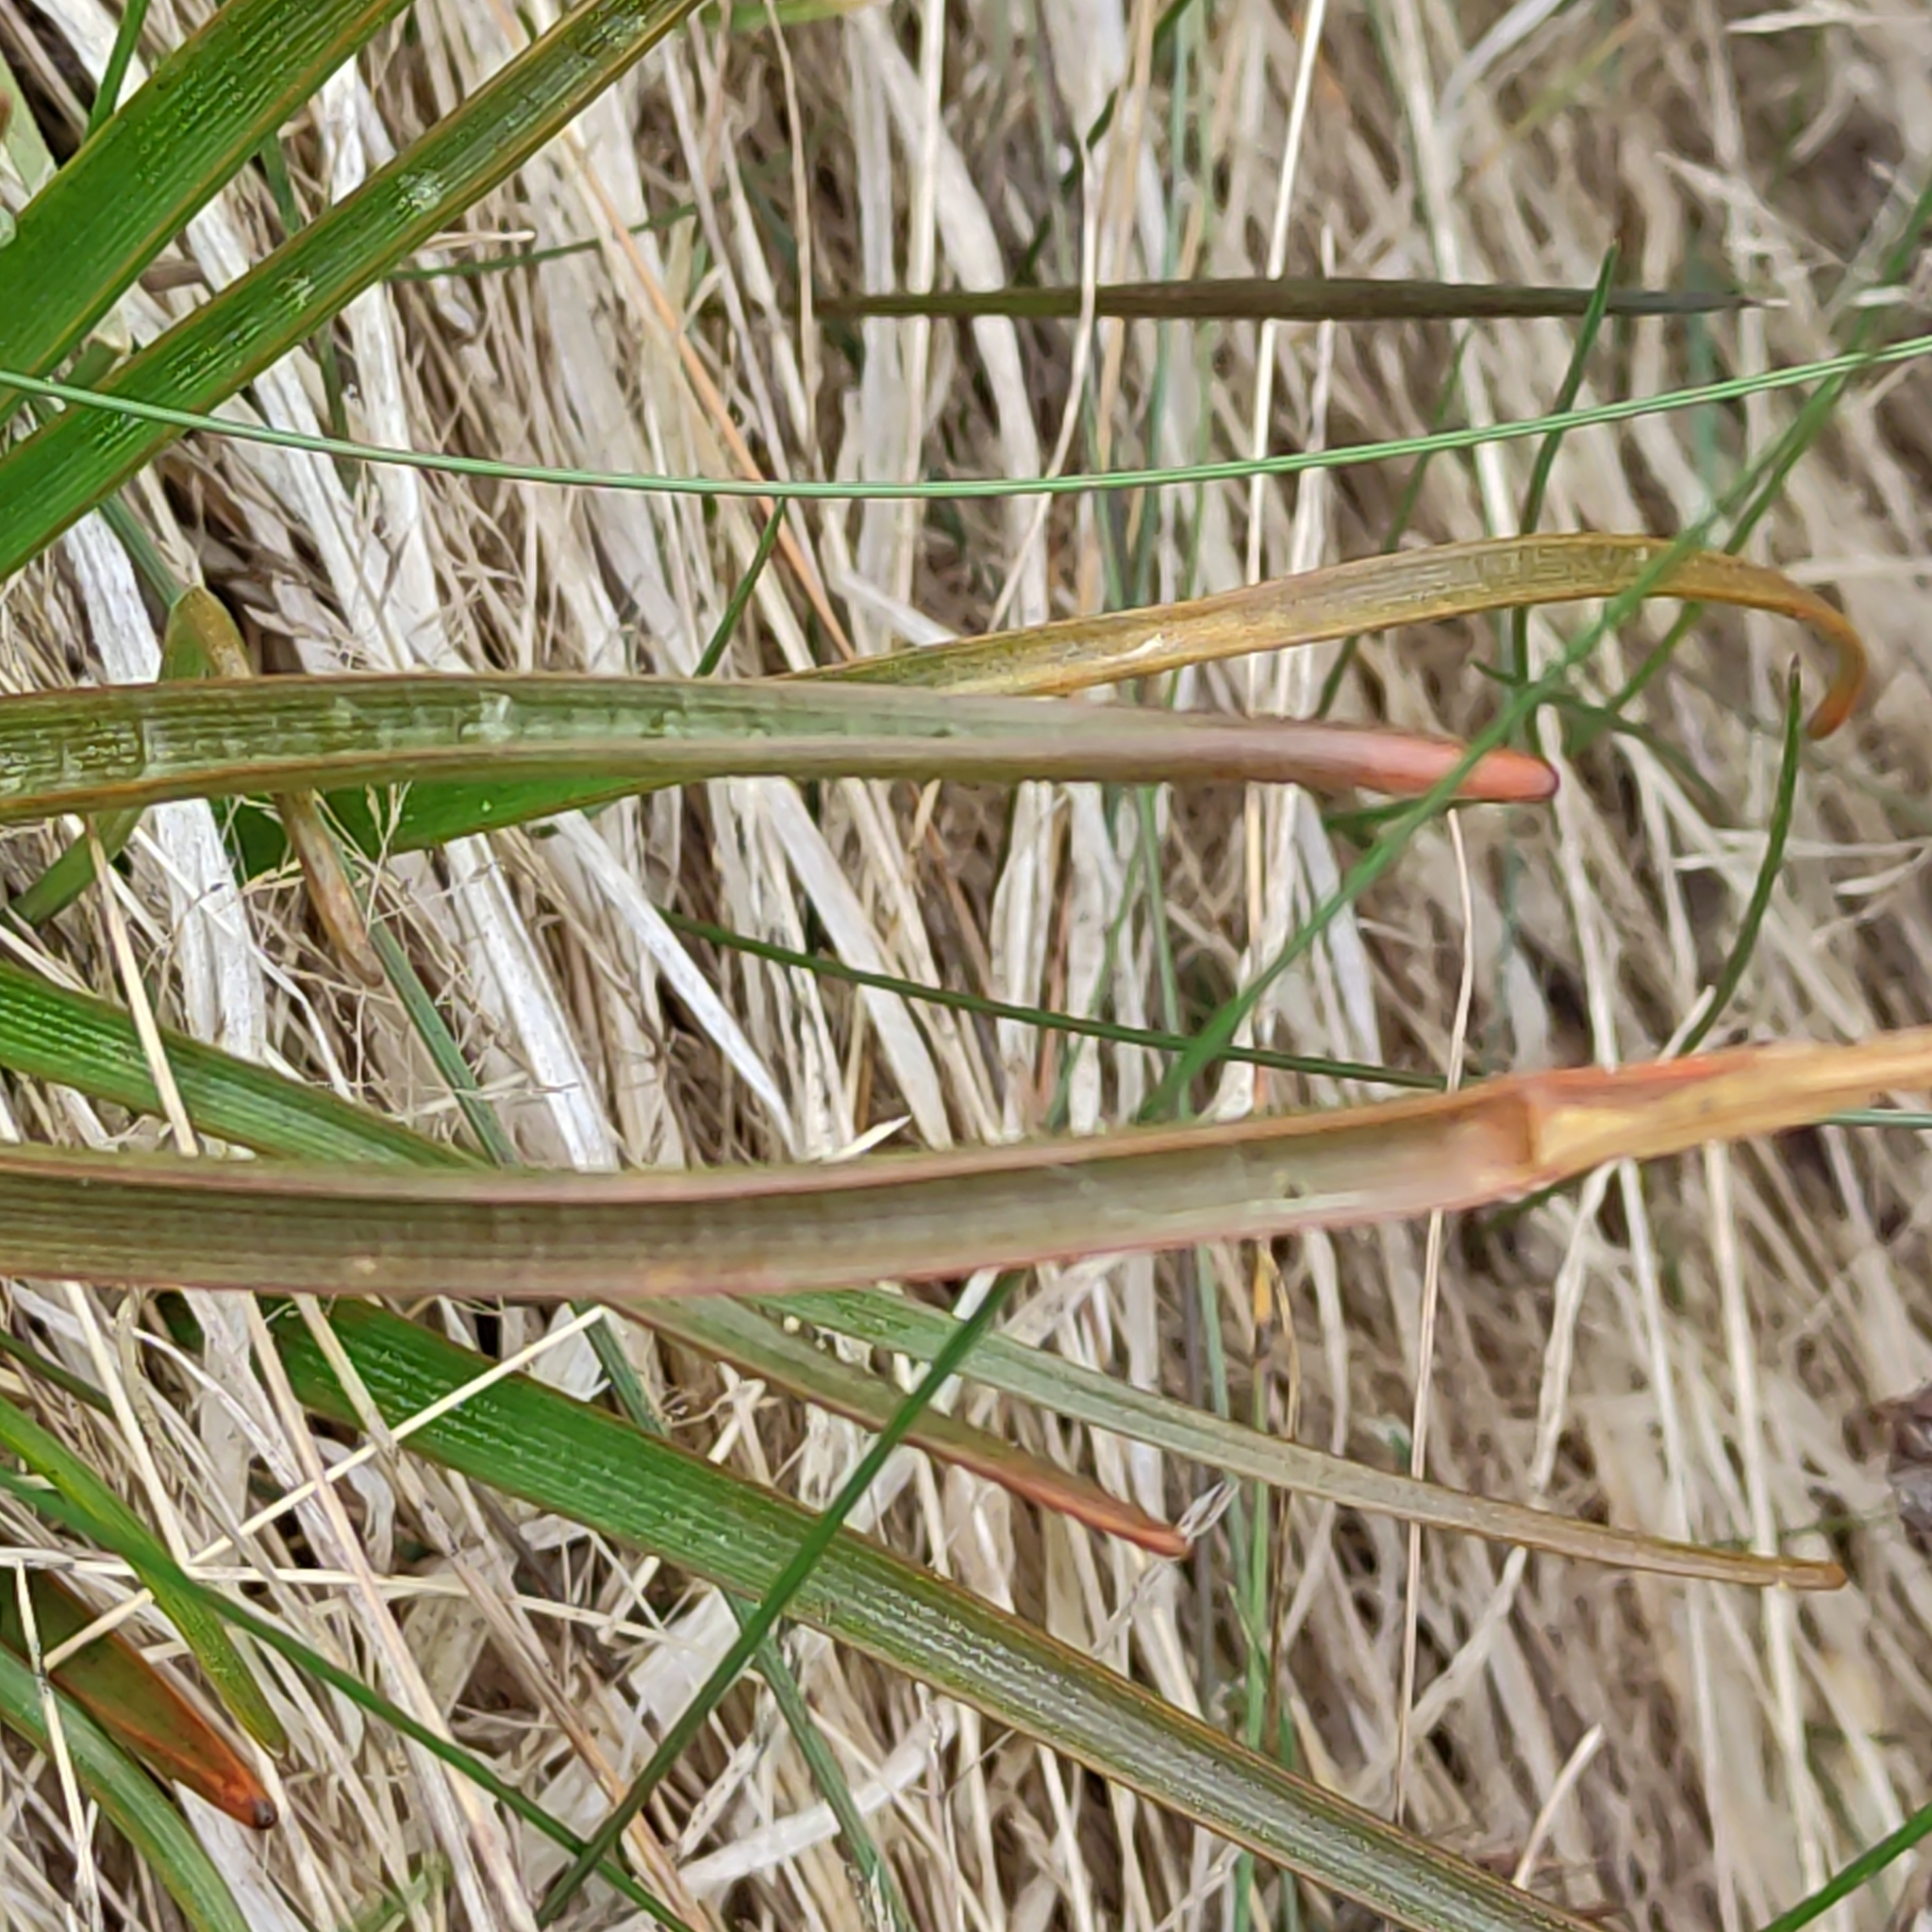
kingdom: Plantae
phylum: Tracheophyta
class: Liliopsida
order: Asparagales
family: Asphodelaceae
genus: Bulbinella
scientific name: Bulbinella angustifolia
